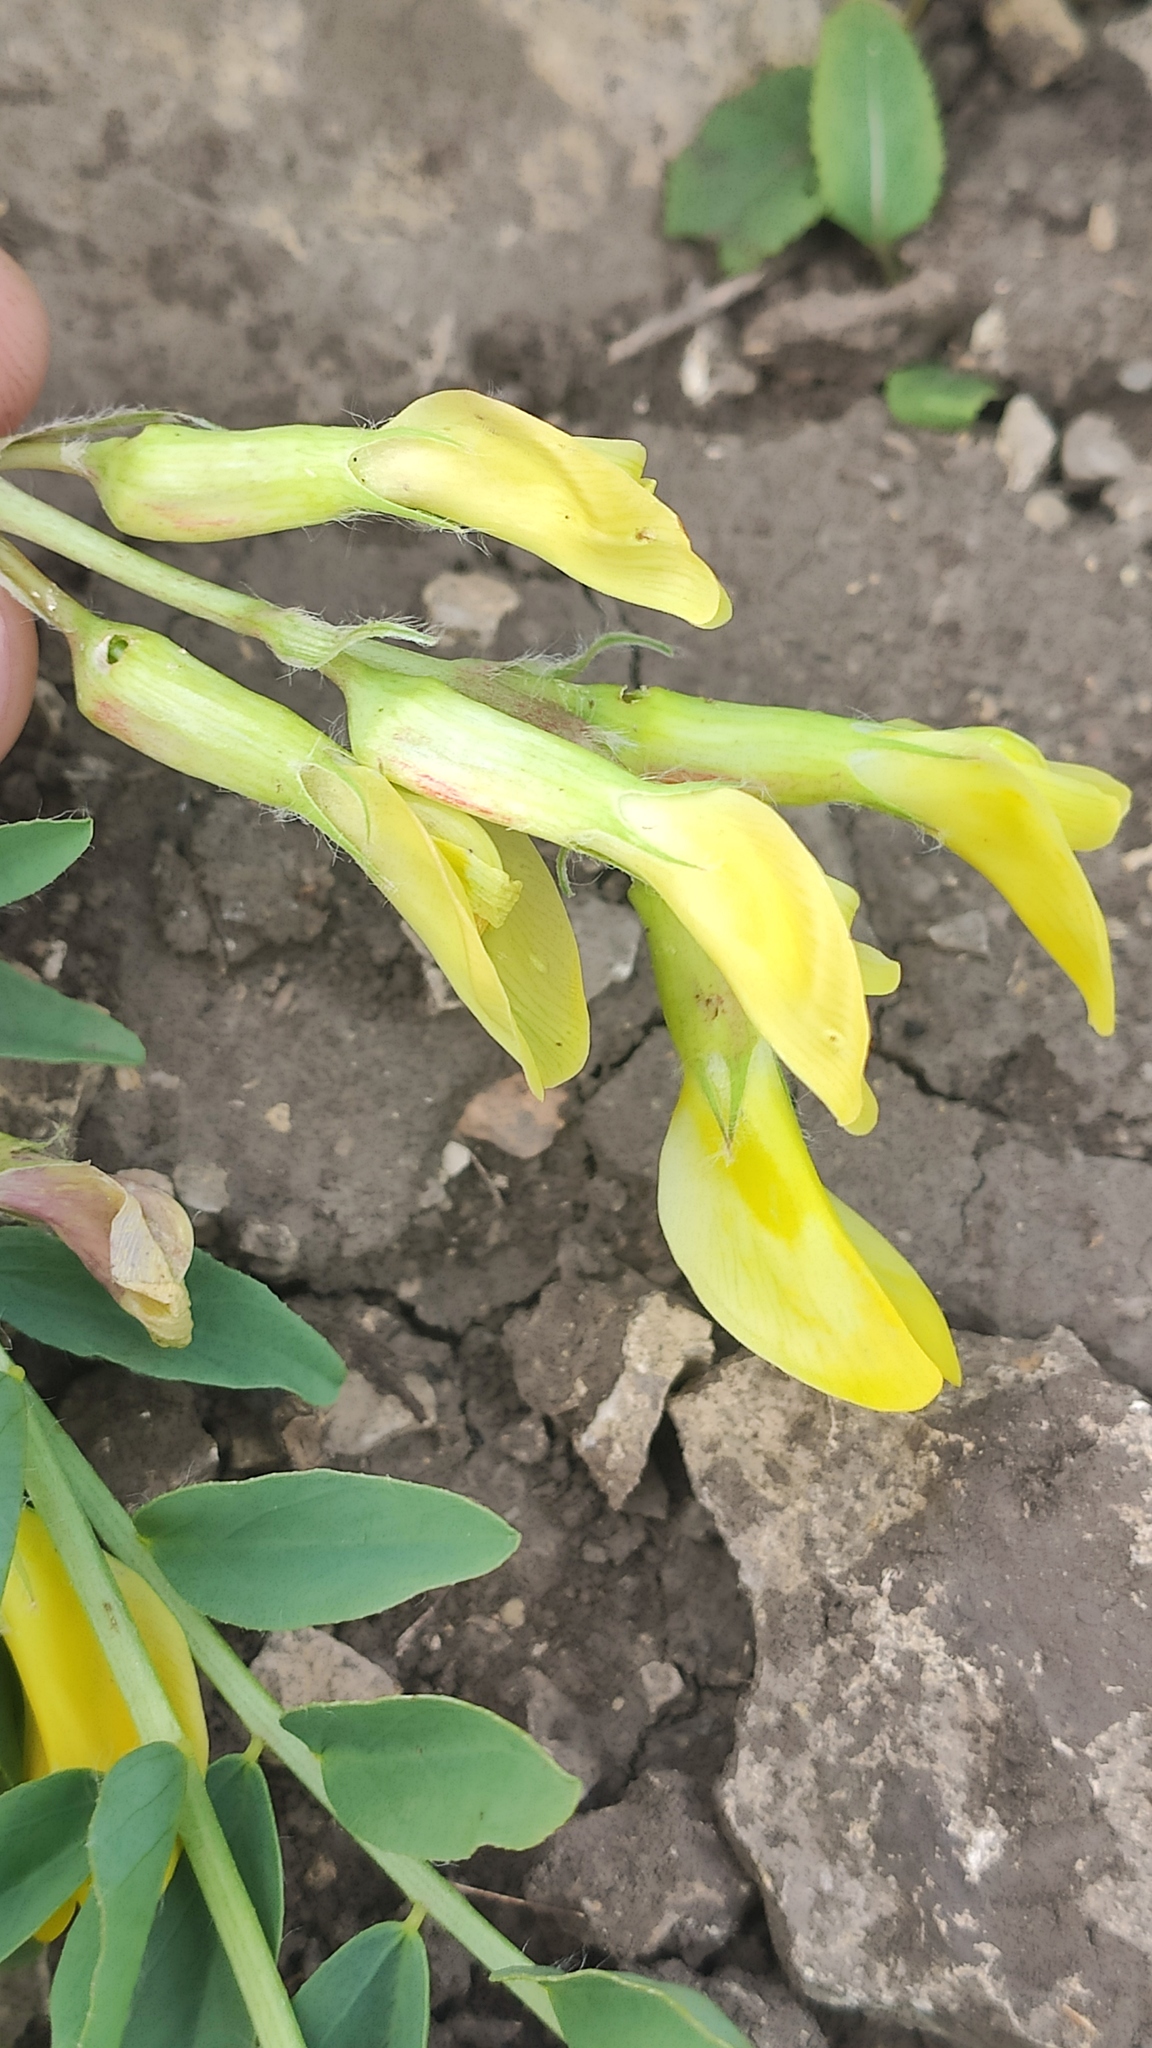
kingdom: Plantae
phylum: Tracheophyta
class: Magnoliopsida
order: Fabales
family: Fabaceae
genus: Astragalus
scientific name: Astragalus wolgensis
